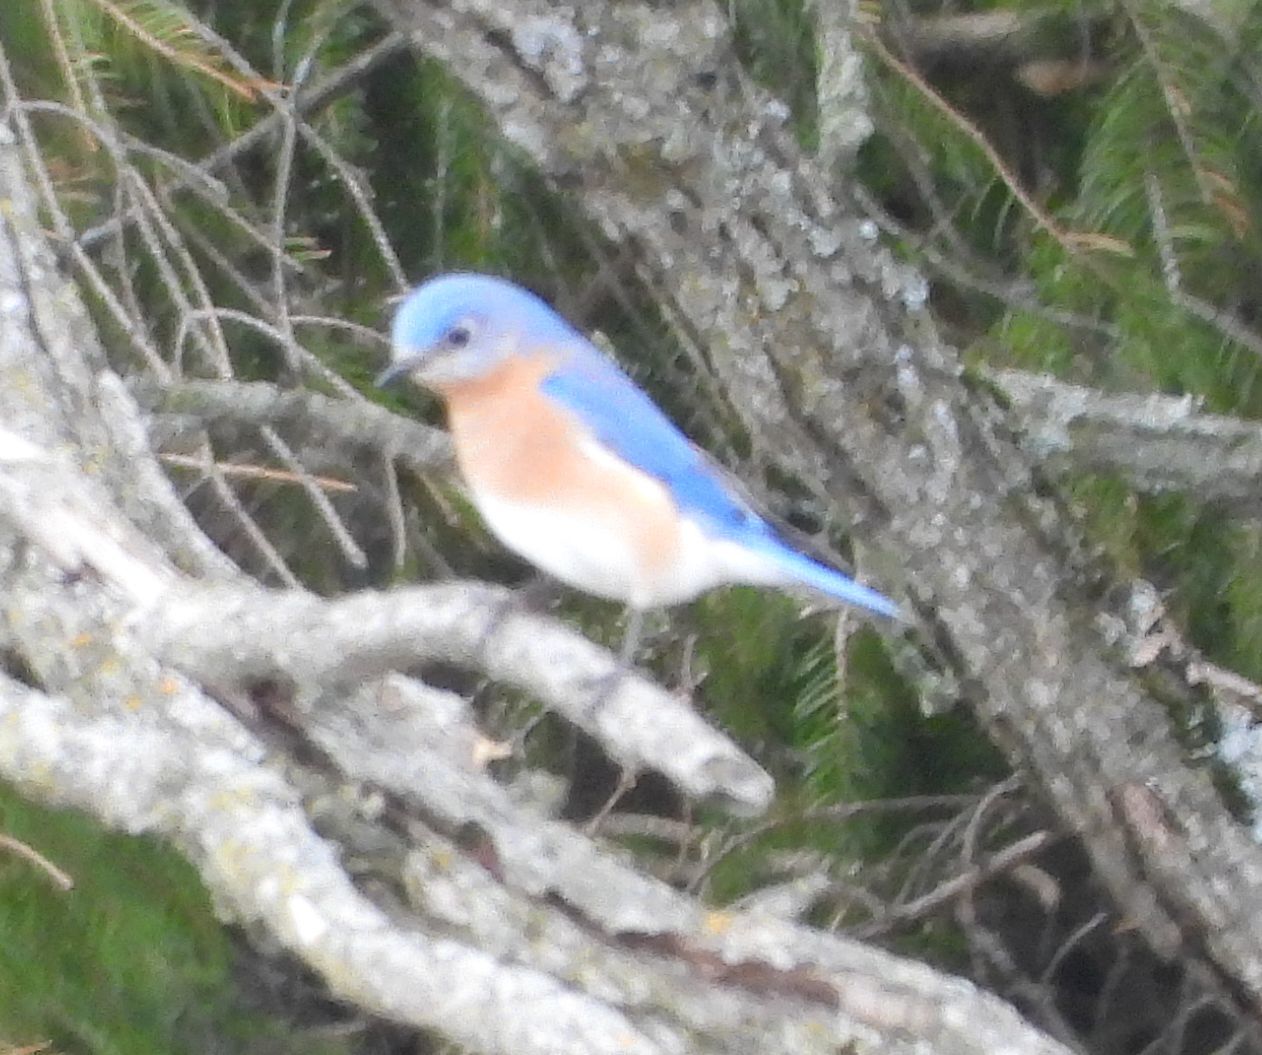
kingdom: Animalia
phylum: Chordata
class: Aves
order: Passeriformes
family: Turdidae
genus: Sialia
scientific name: Sialia sialis
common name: Eastern bluebird
